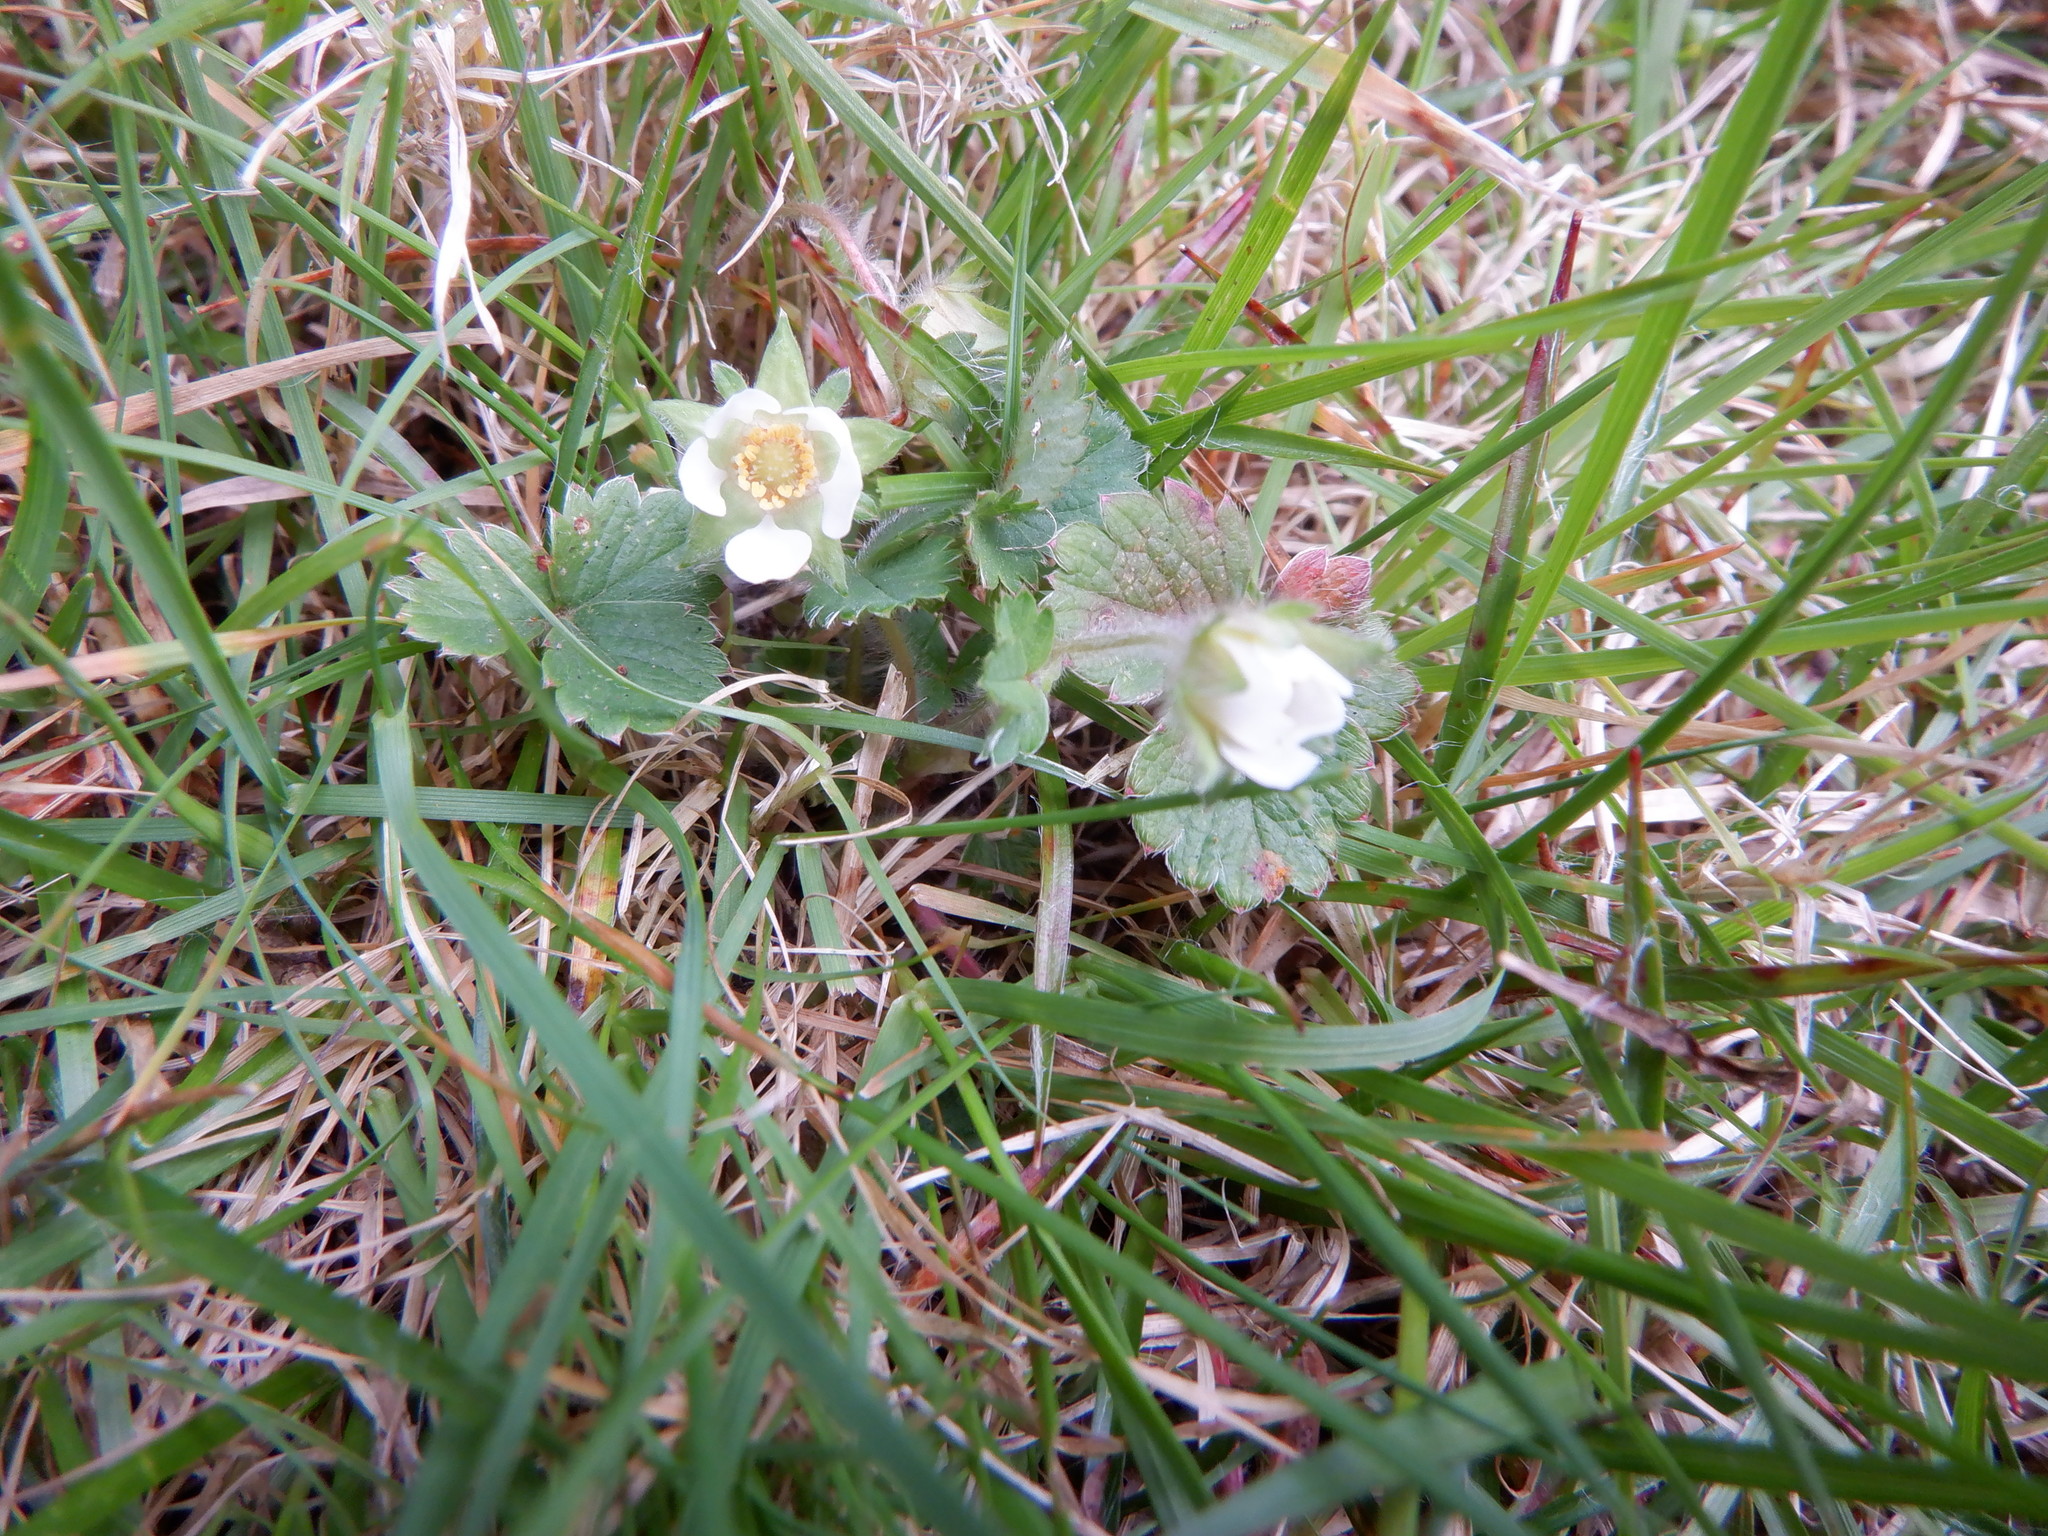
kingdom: Plantae
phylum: Tracheophyta
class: Magnoliopsida
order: Rosales
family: Rosaceae
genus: Potentilla
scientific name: Potentilla sterilis
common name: Barren strawberry
